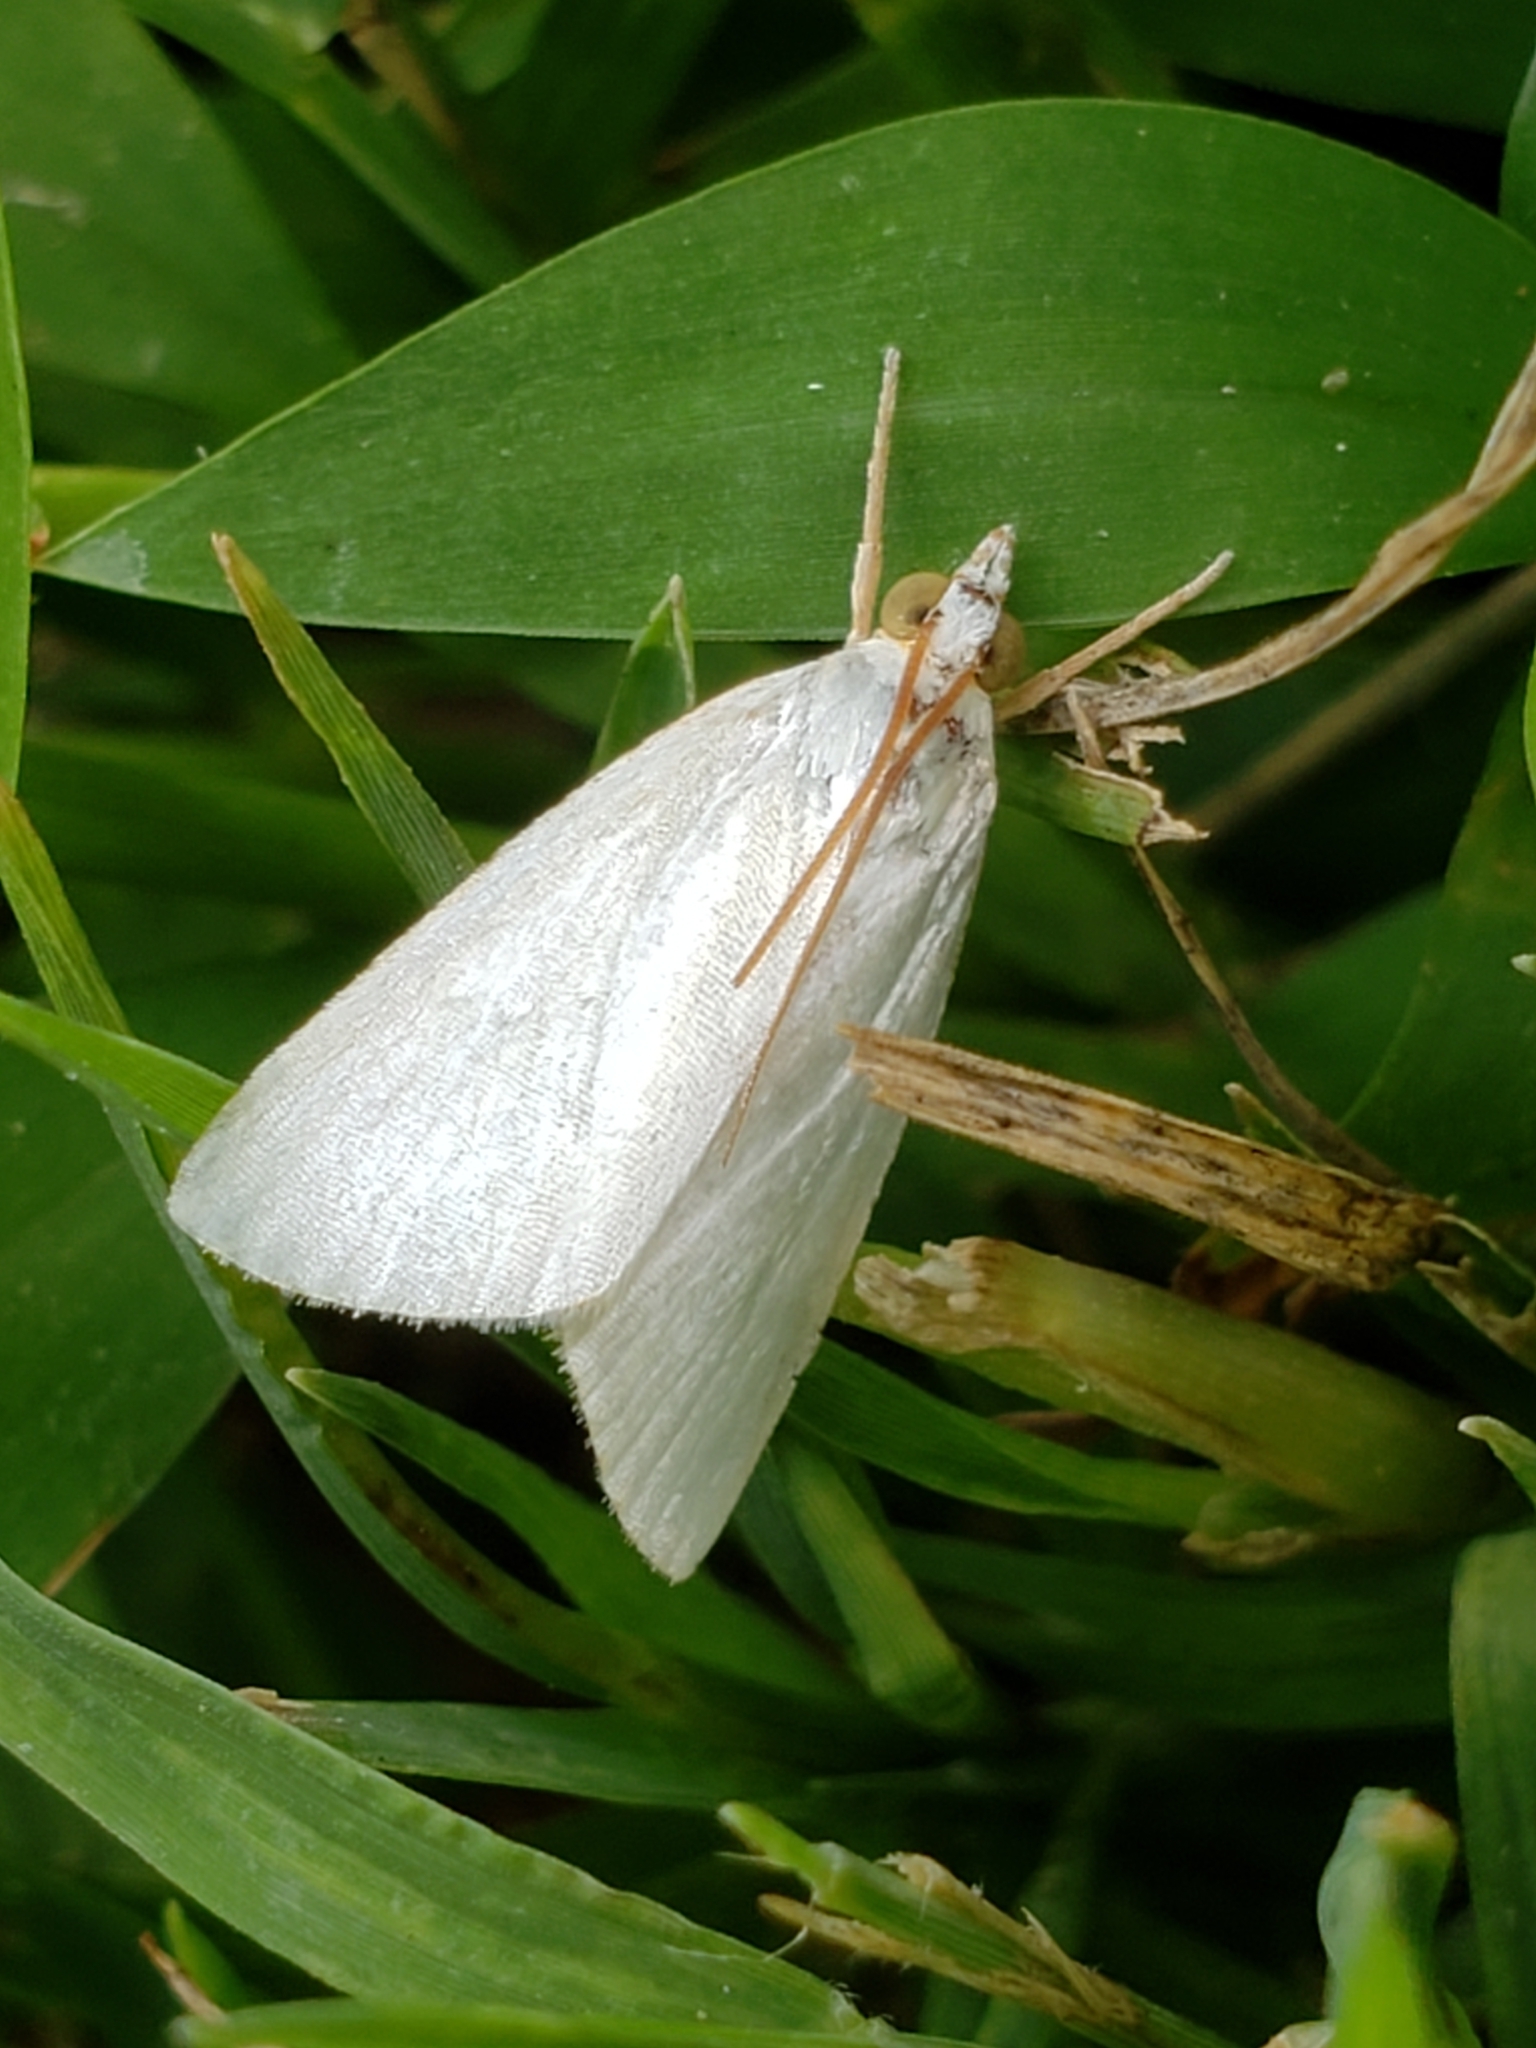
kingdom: Animalia
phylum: Arthropoda
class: Insecta
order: Lepidoptera
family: Crambidae
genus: Argyria
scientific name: Argyria nivalis
